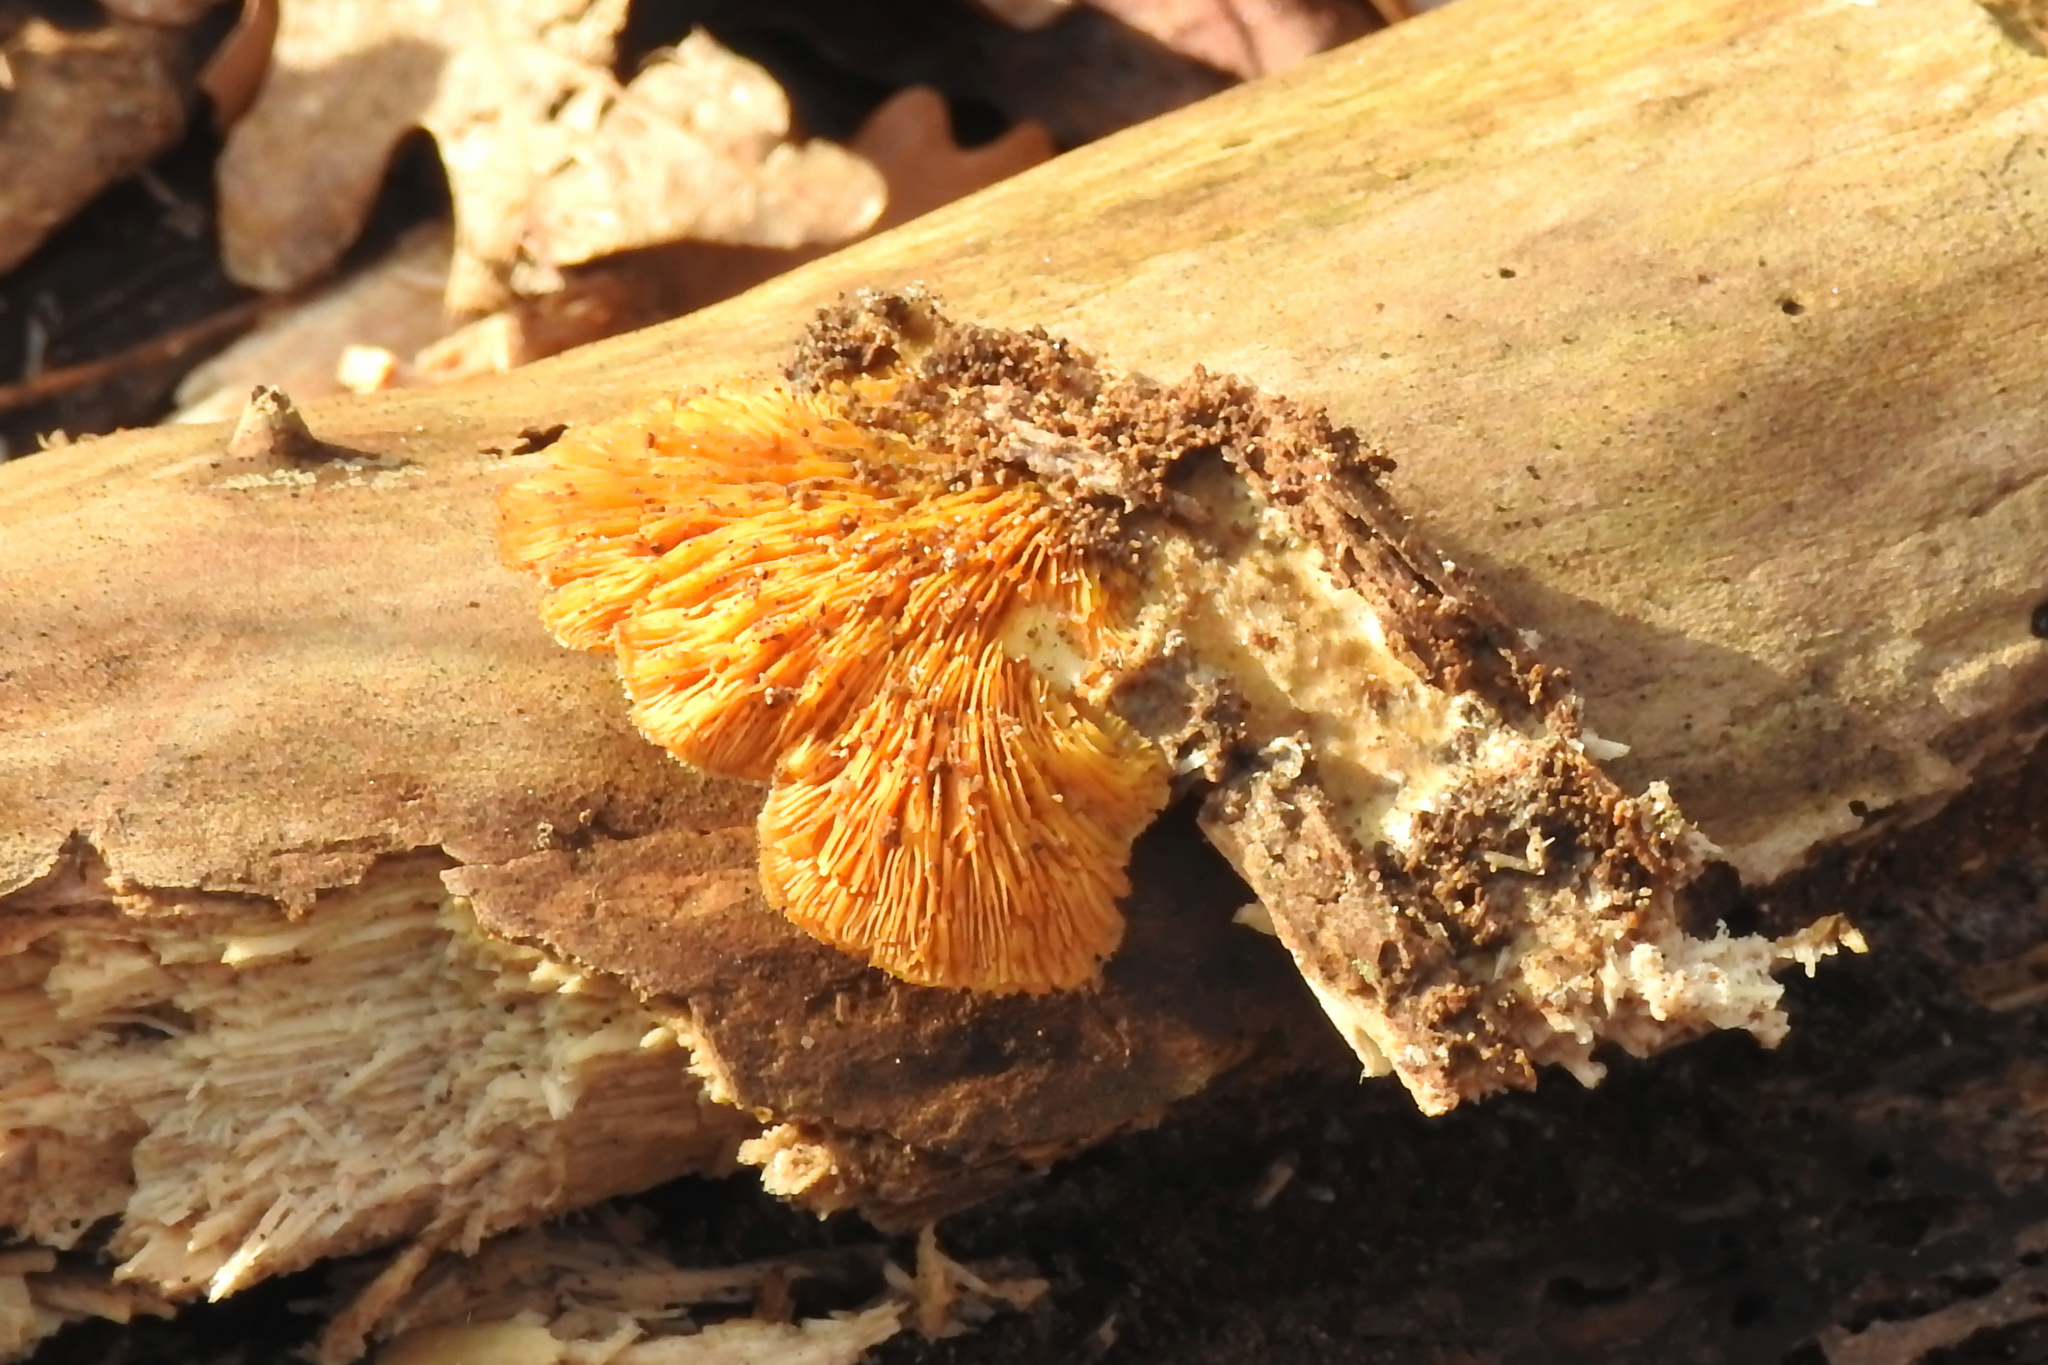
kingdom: Fungi
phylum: Basidiomycota
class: Agaricomycetes
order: Agaricales
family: Phyllotopsidaceae
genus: Phyllotopsis
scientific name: Phyllotopsis nidulans
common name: Orange mock oyster
